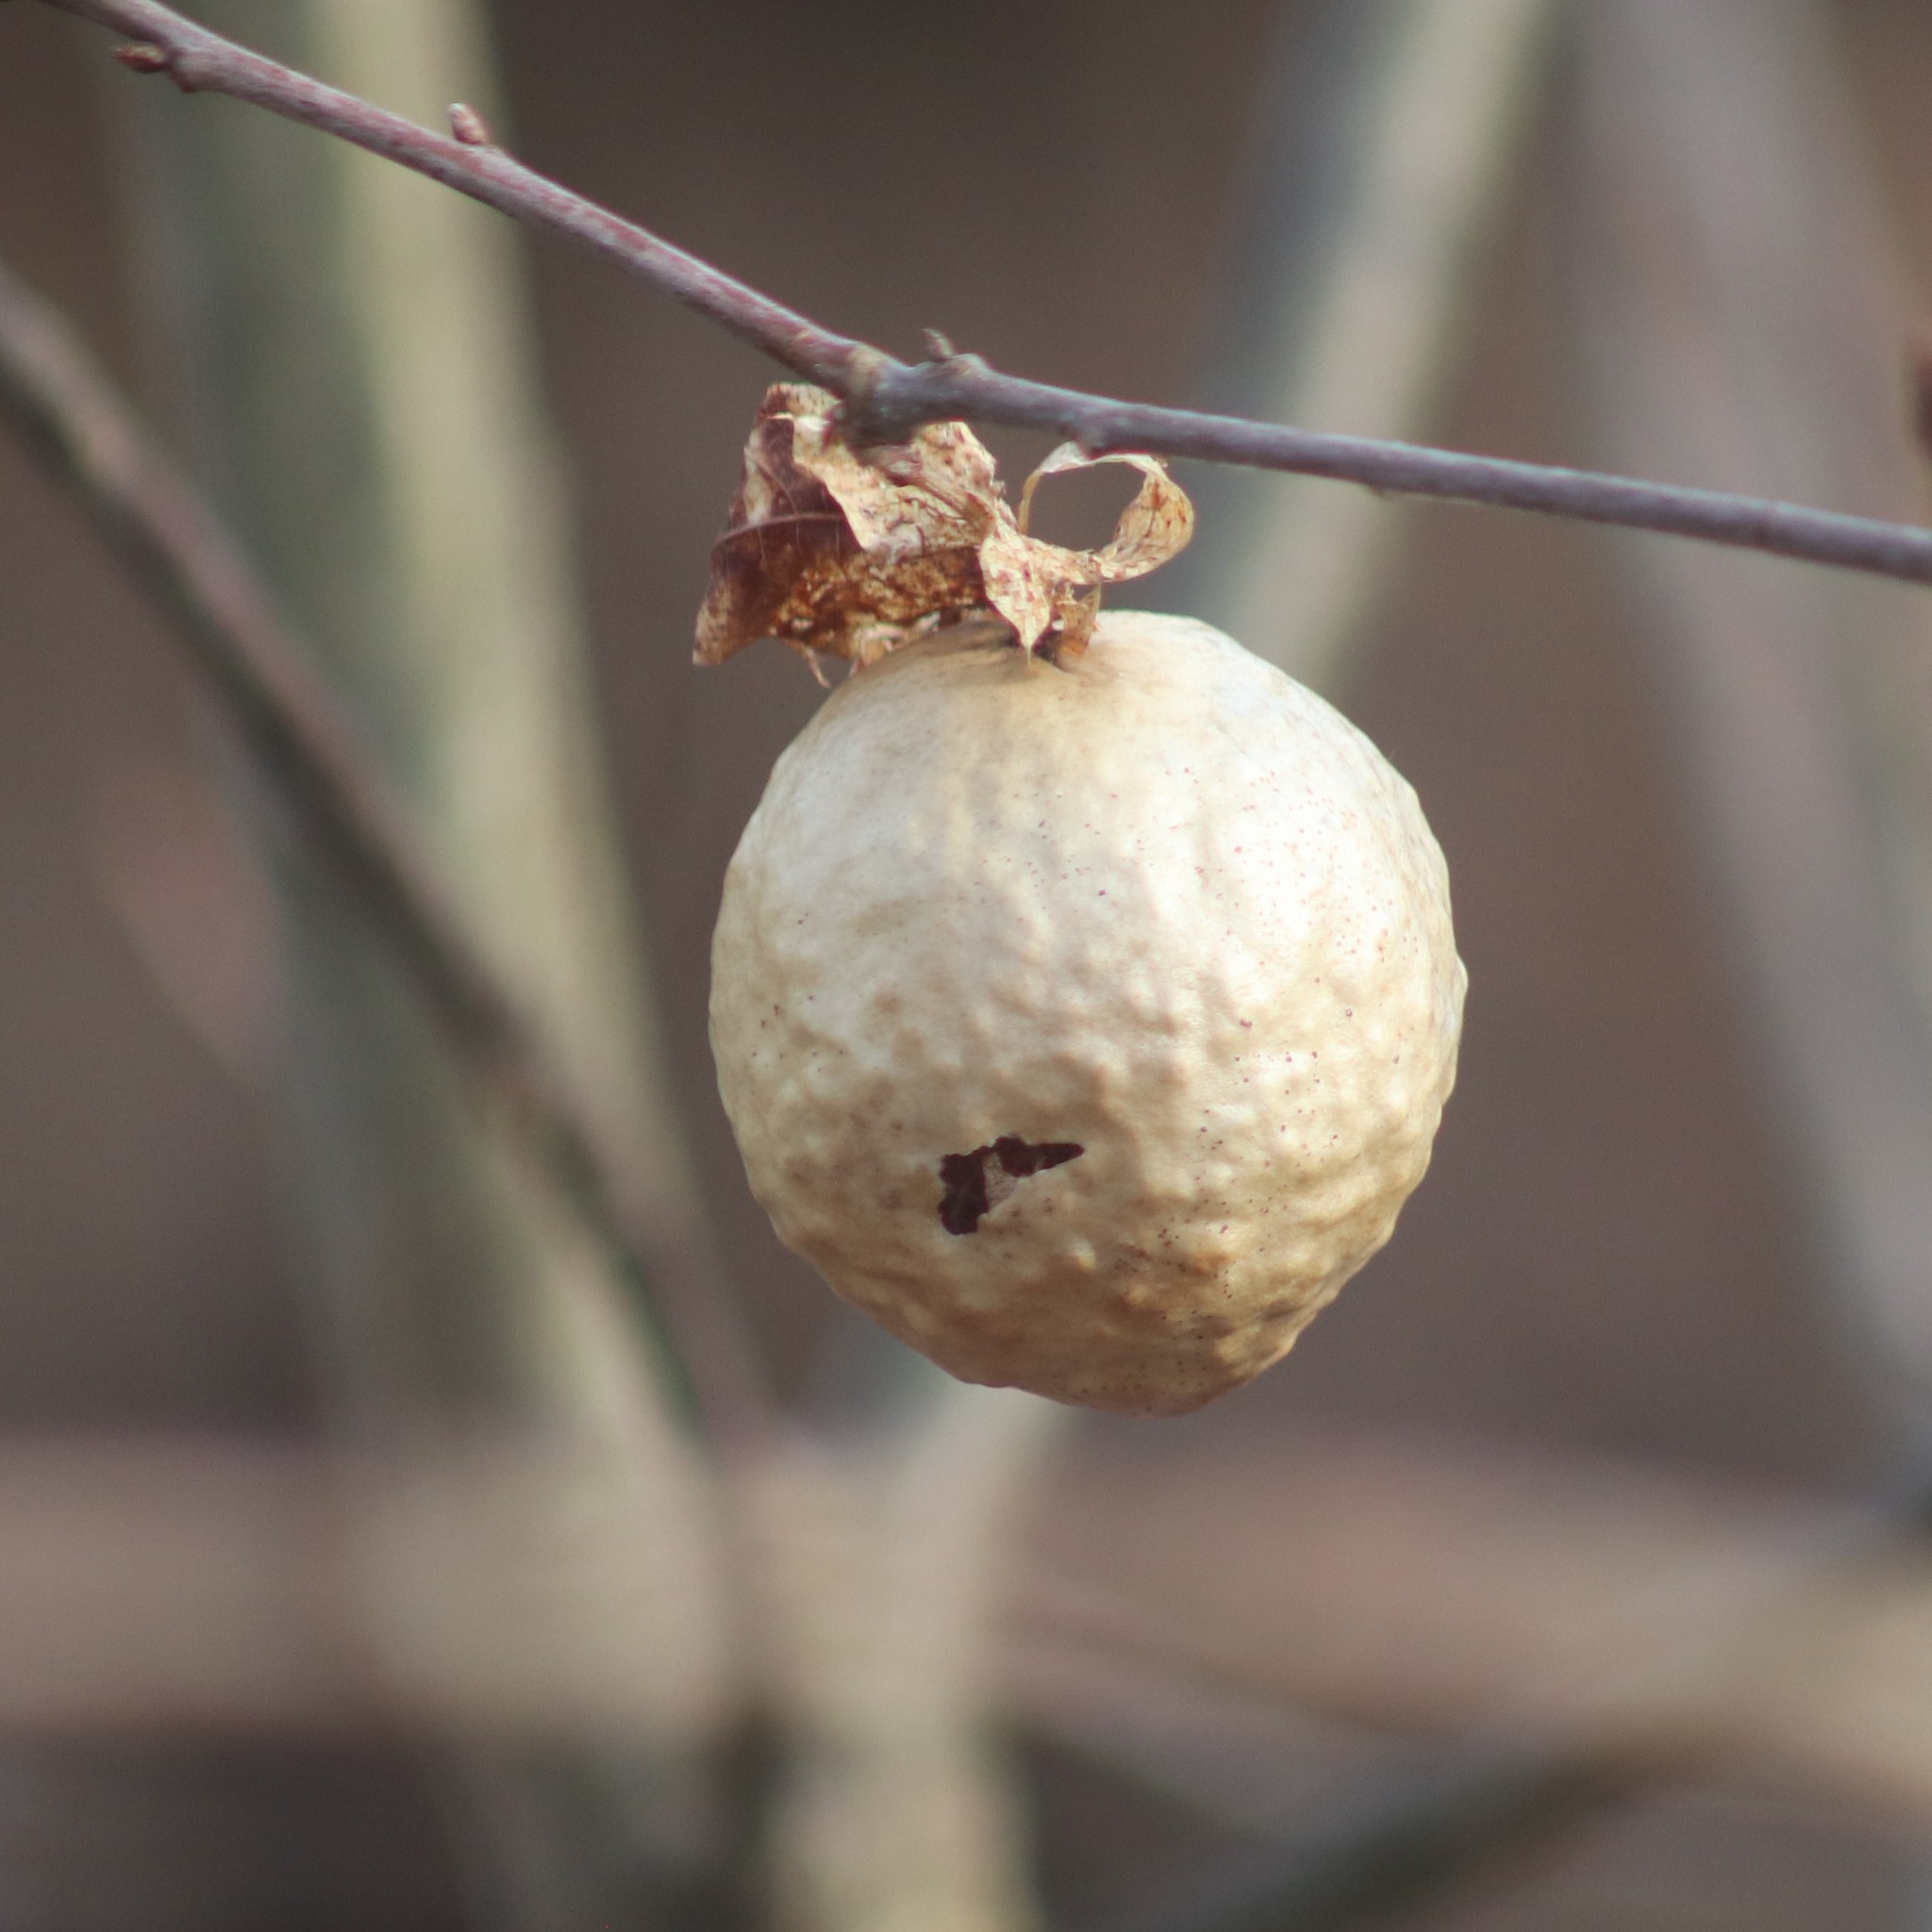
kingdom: Animalia
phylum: Arthropoda
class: Insecta
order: Hymenoptera
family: Cynipidae
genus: Amphibolips
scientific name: Amphibolips
